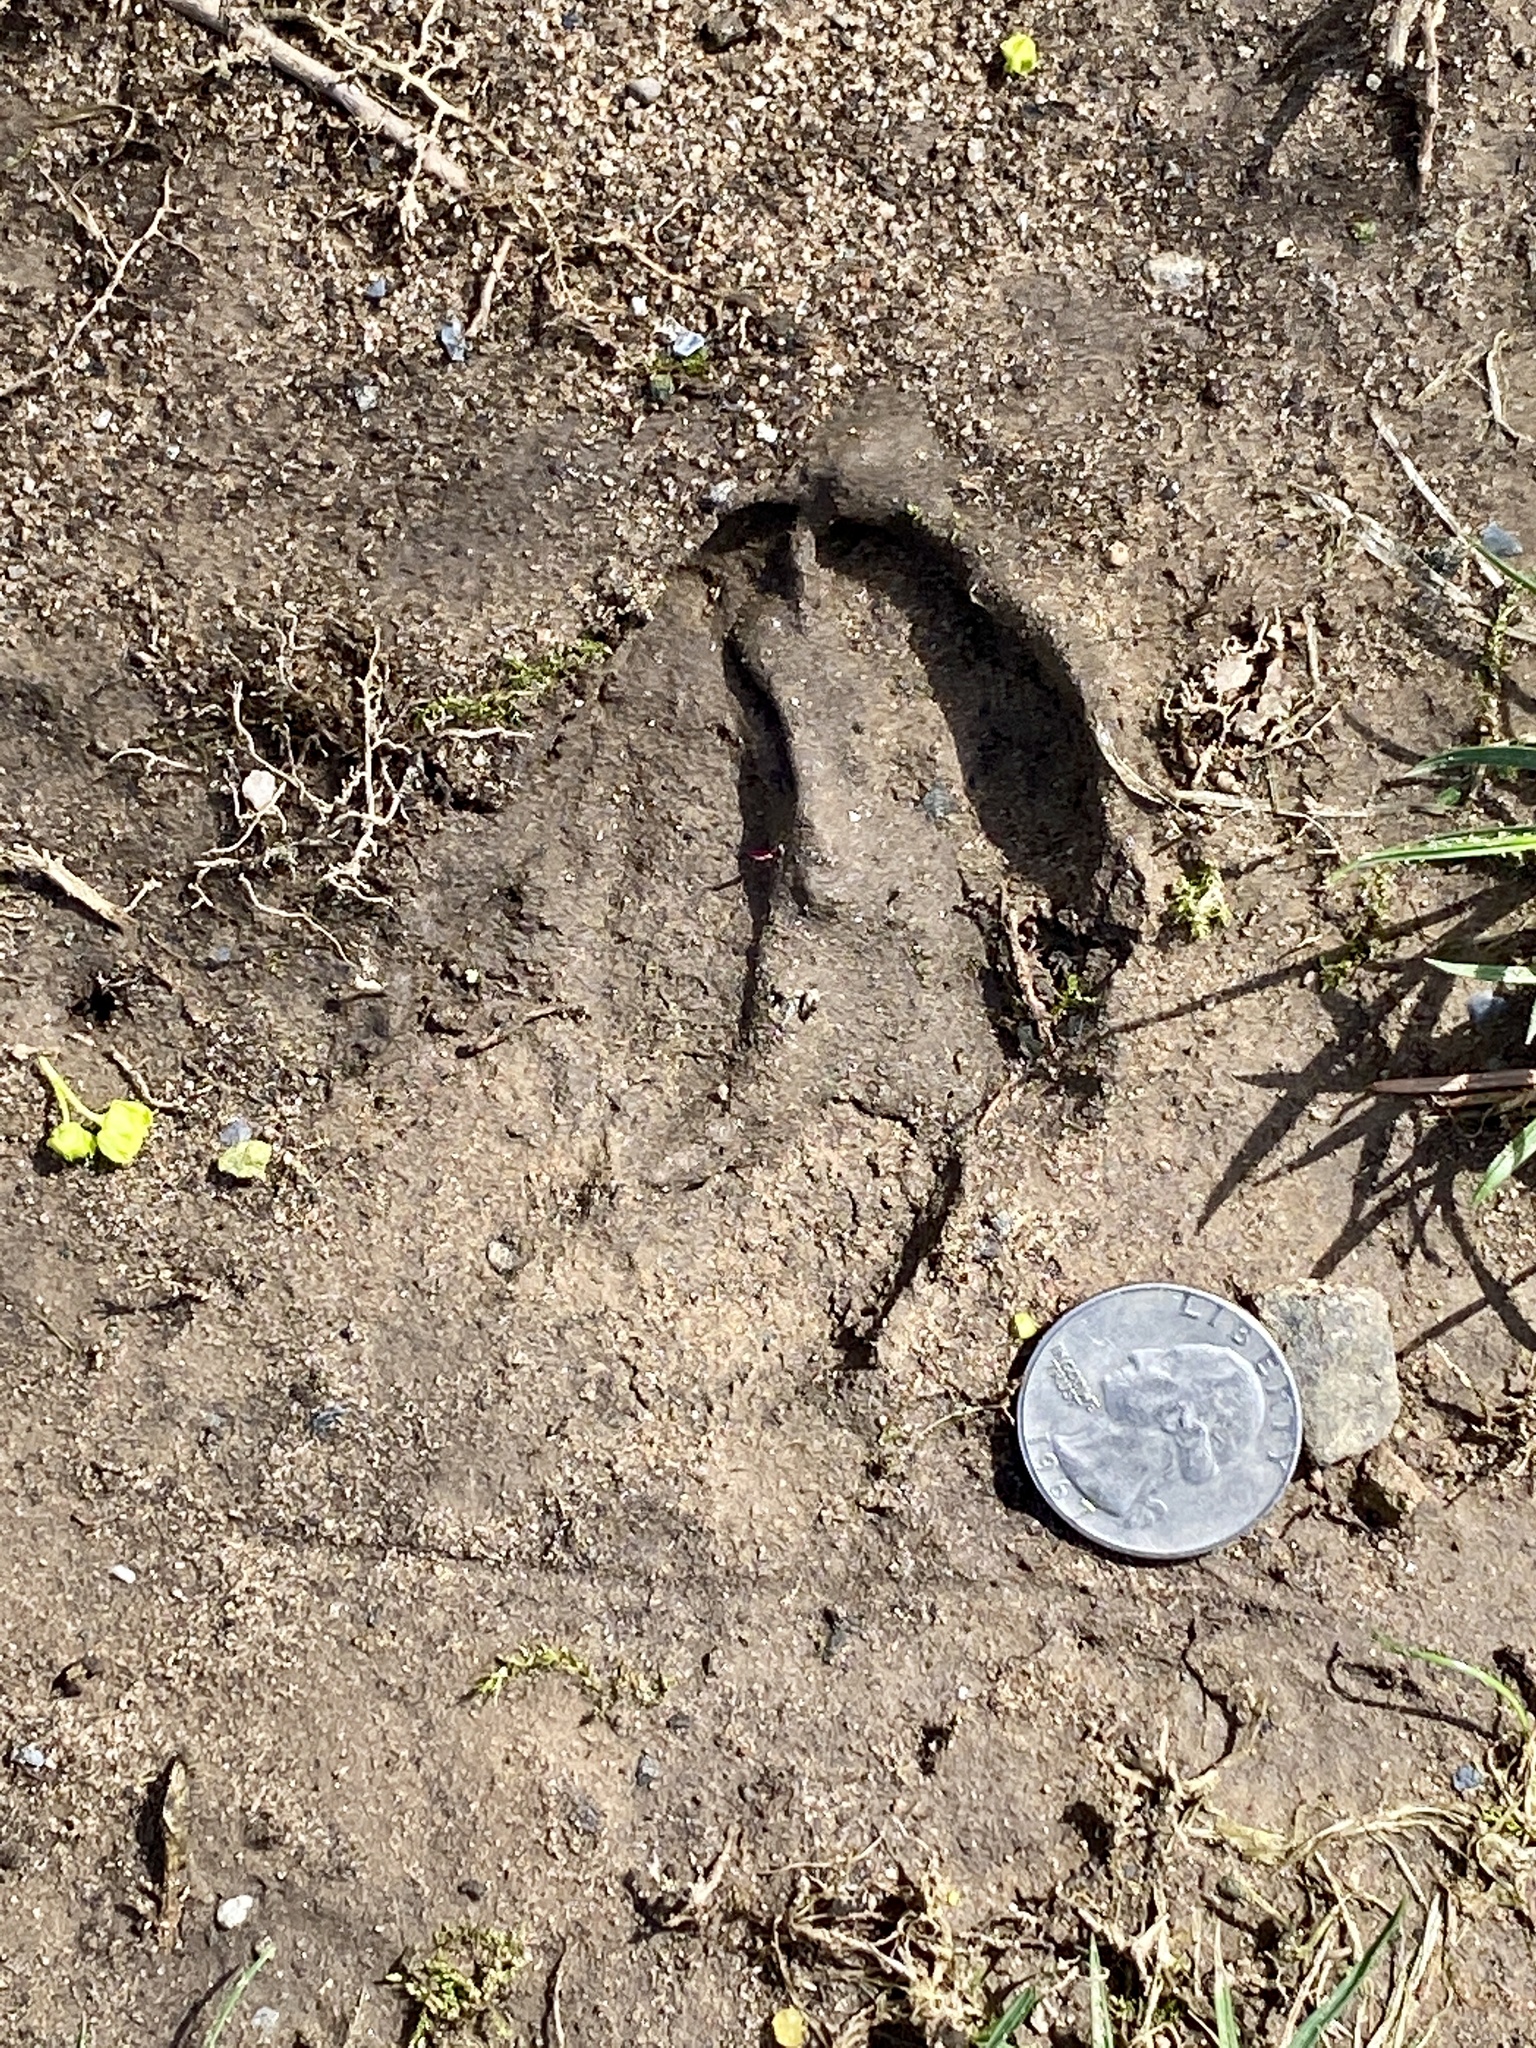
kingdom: Animalia
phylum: Chordata
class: Mammalia
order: Artiodactyla
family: Cervidae
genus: Odocoileus
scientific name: Odocoileus virginianus
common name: White-tailed deer
